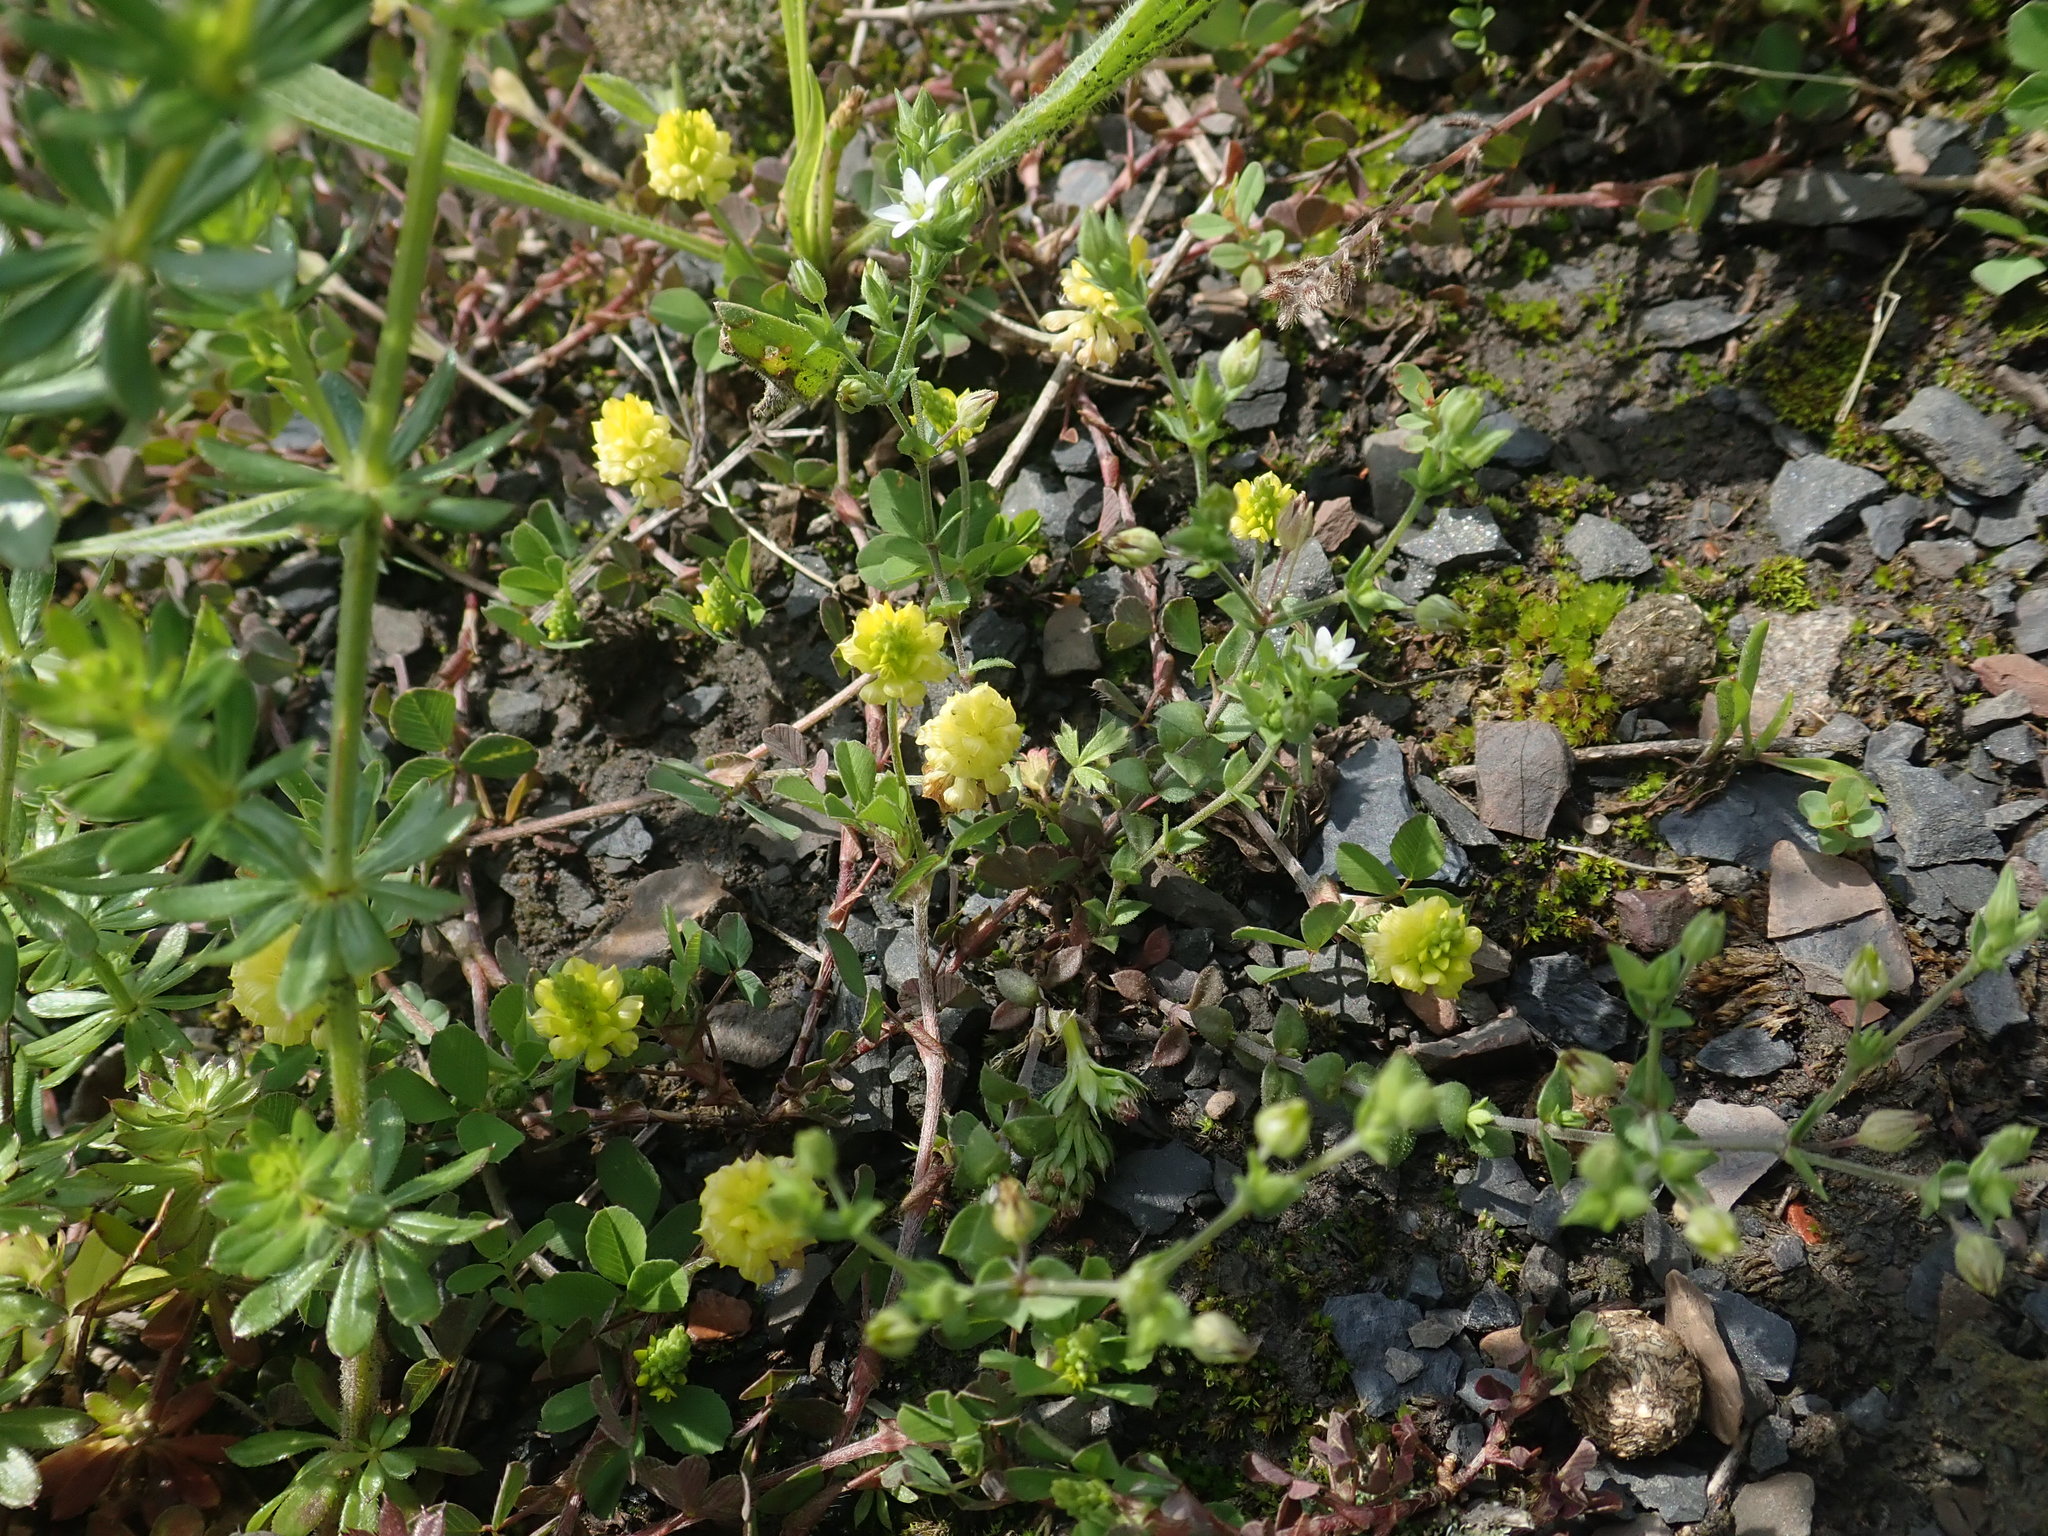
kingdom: Plantae
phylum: Tracheophyta
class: Magnoliopsida
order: Fabales
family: Fabaceae
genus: Trifolium
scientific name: Trifolium dubium
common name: Suckling clover
